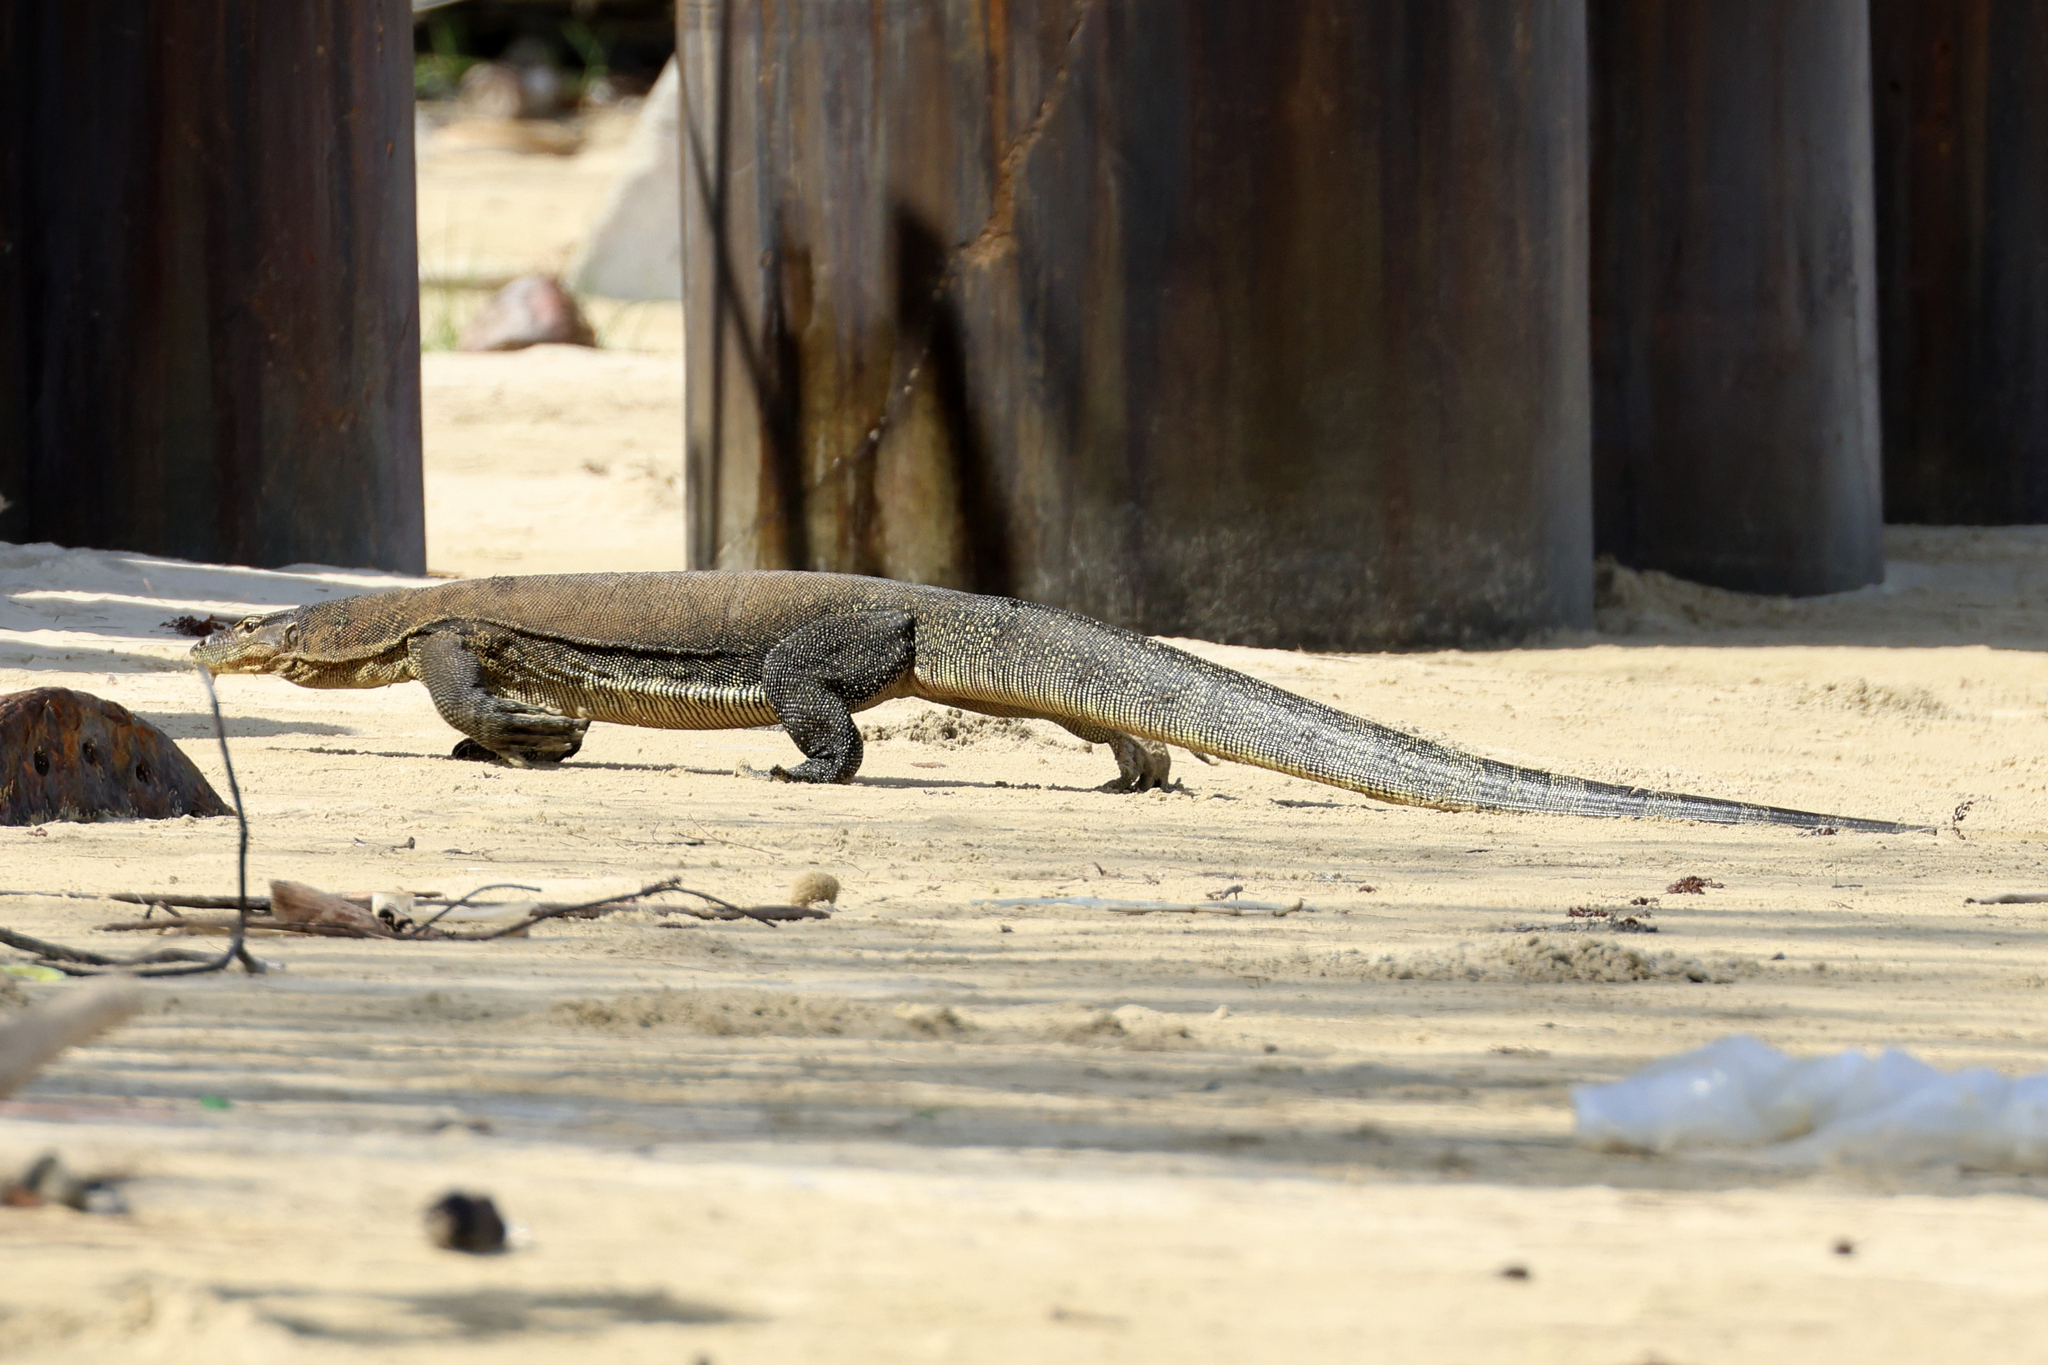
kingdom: Animalia
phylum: Chordata
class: Squamata
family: Varanidae
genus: Varanus
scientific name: Varanus salvator
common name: Common water monitor
